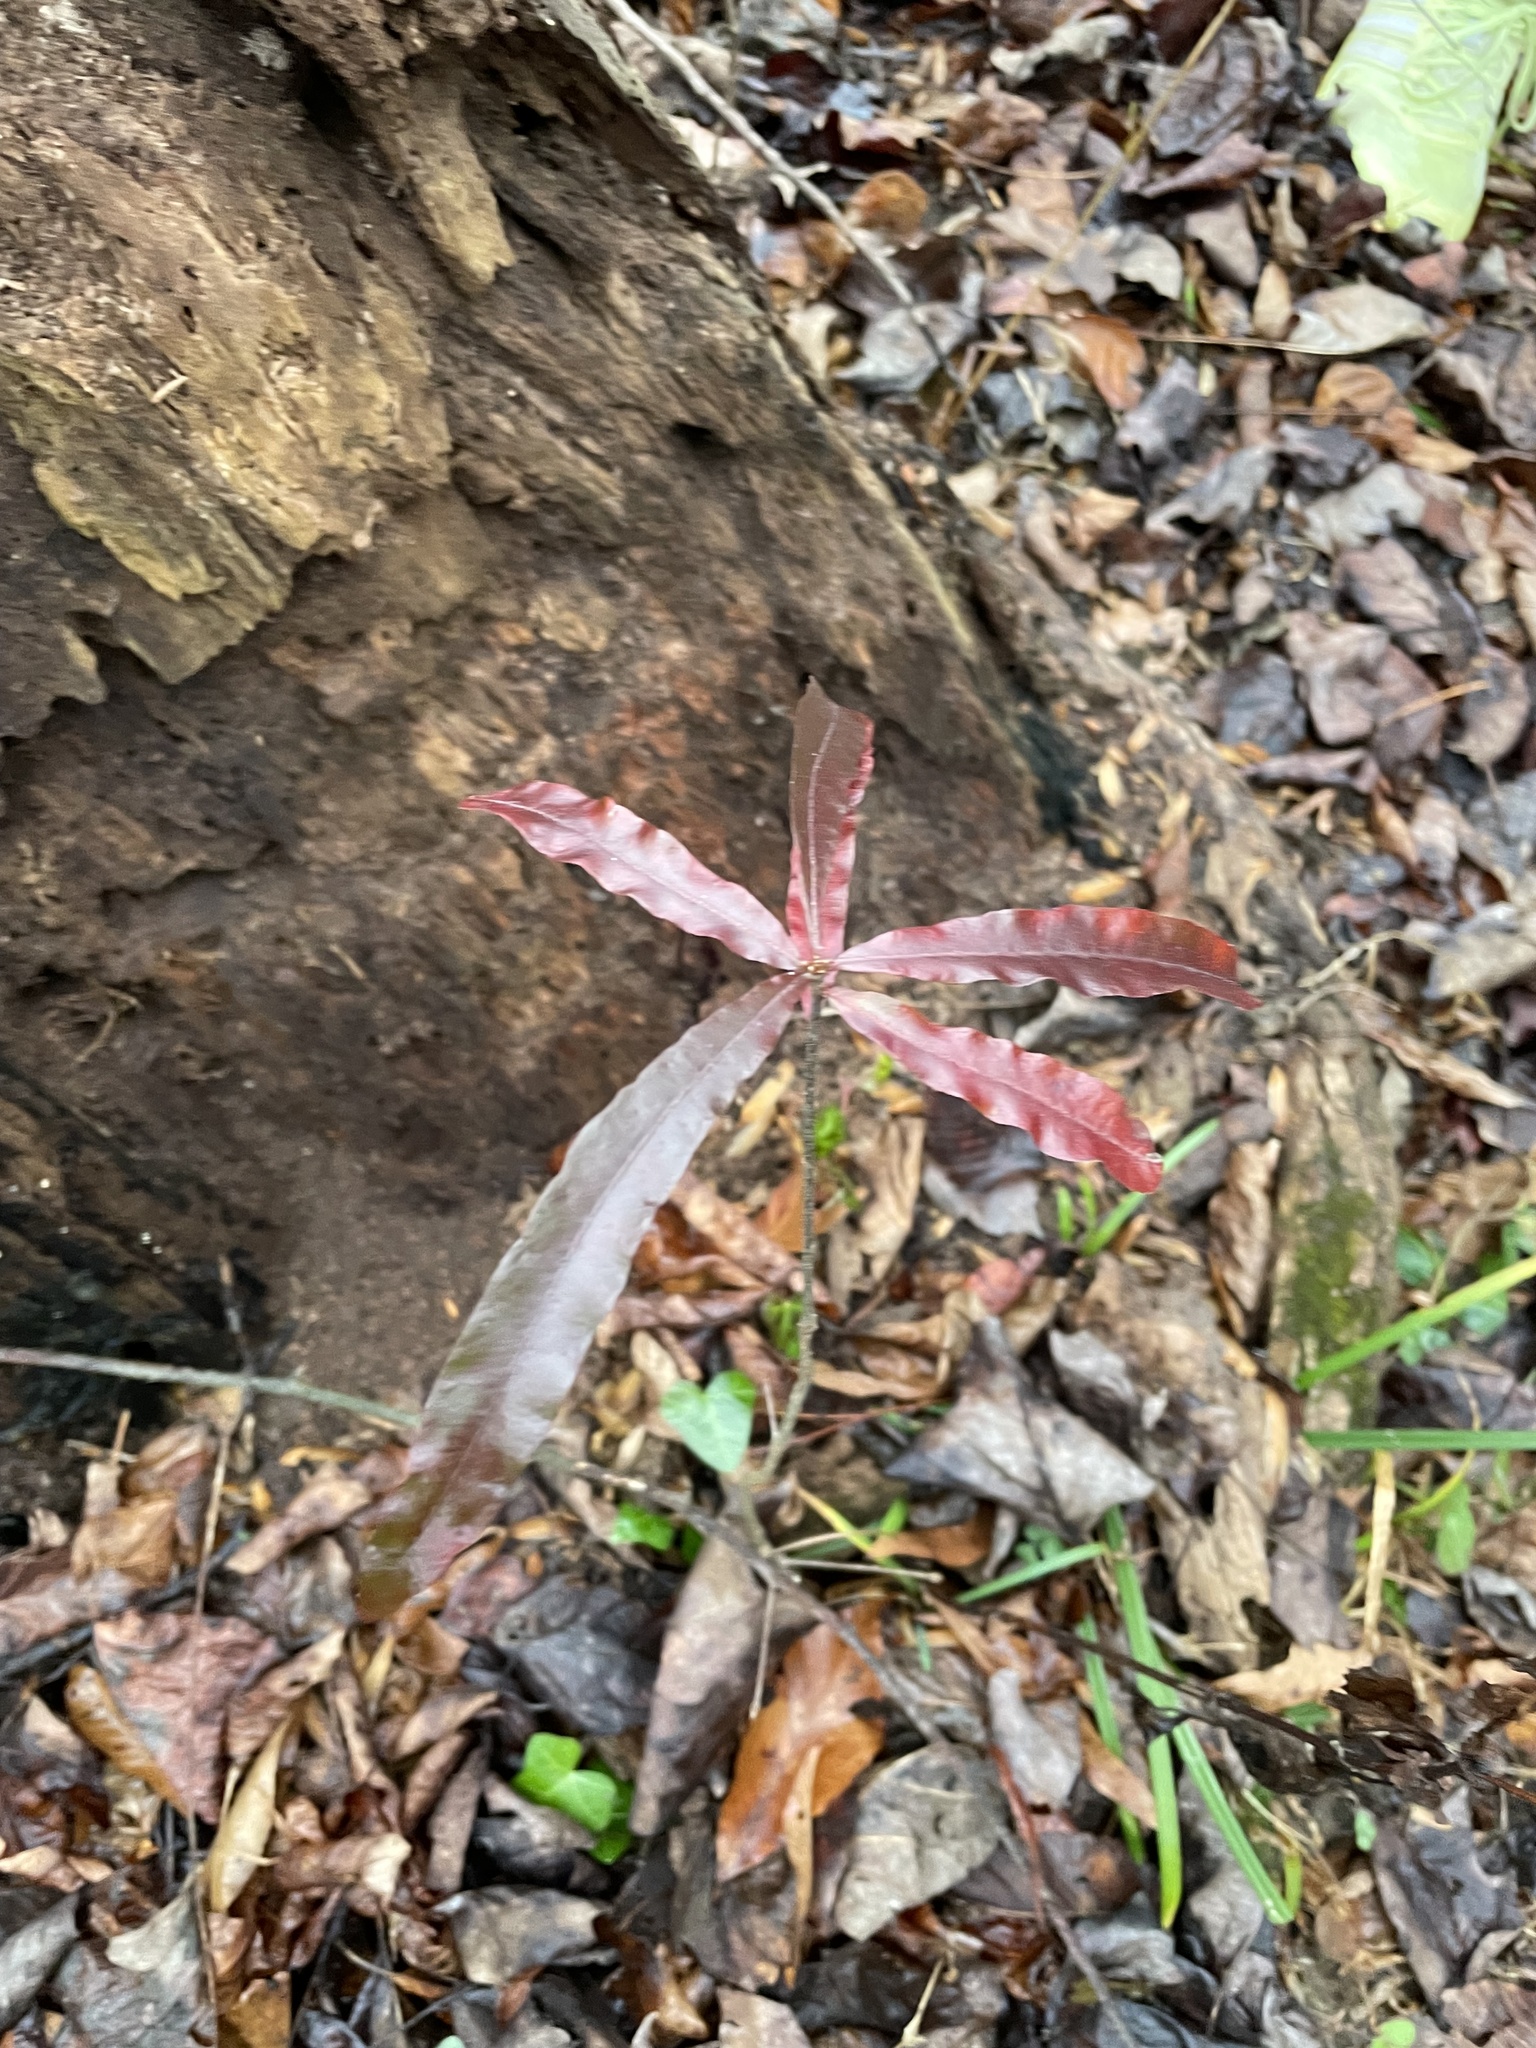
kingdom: Plantae
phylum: Tracheophyta
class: Magnoliopsida
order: Fagales
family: Fagaceae
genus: Quercus
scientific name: Quercus phellos
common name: Willow oak
